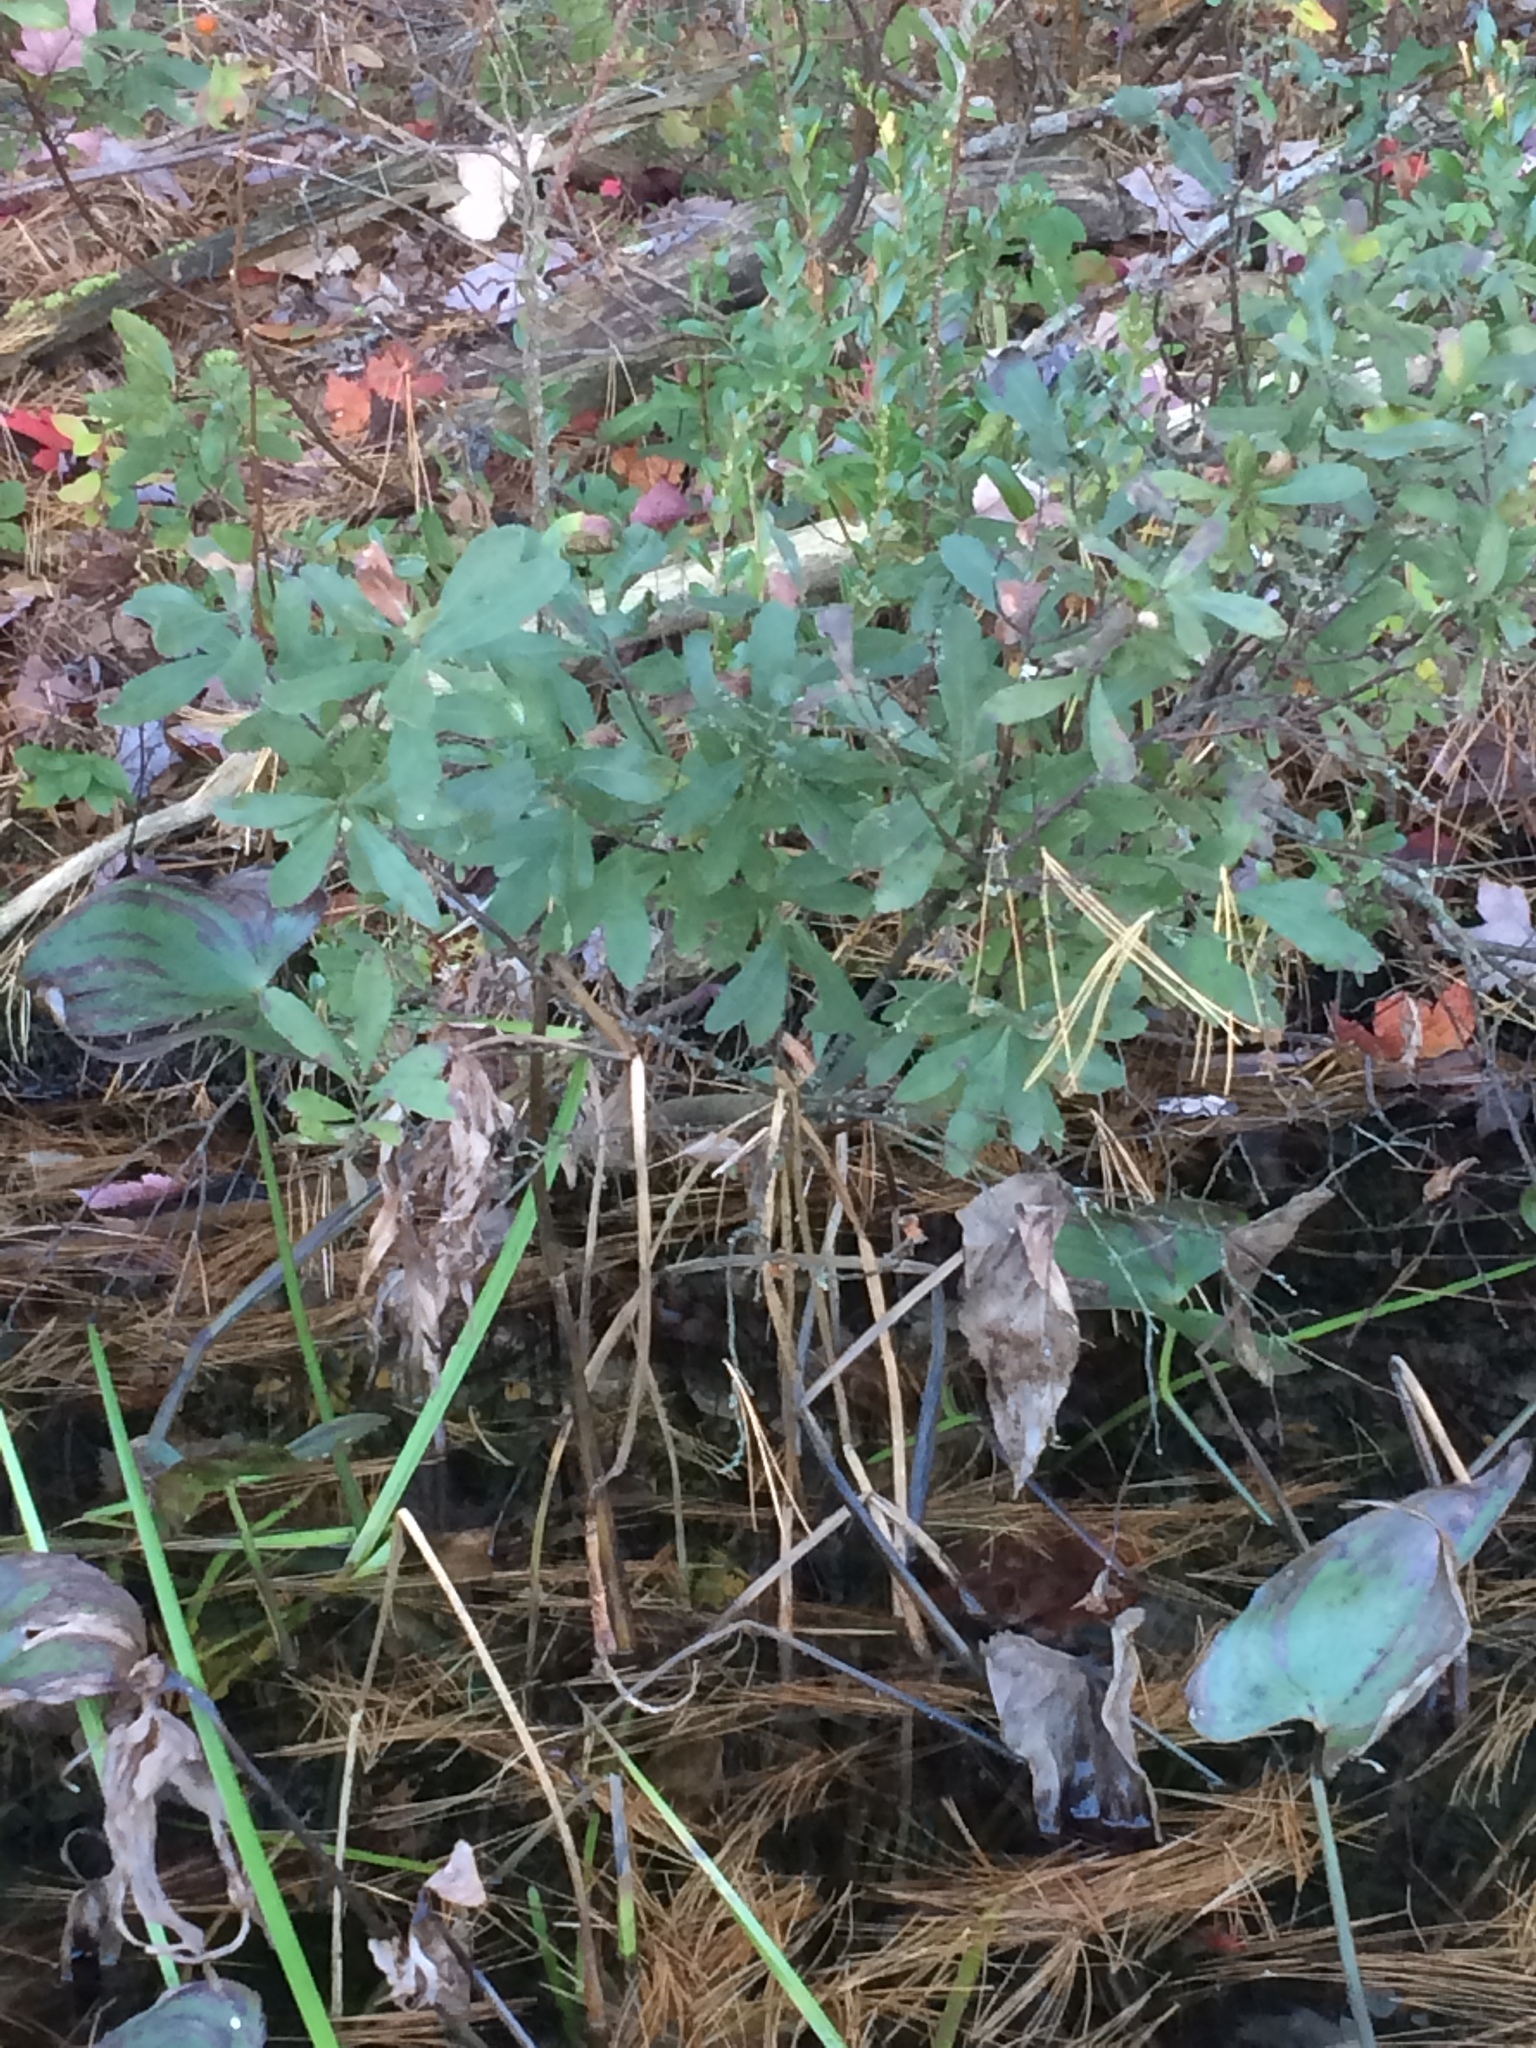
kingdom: Plantae
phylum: Tracheophyta
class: Magnoliopsida
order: Fagales
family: Myricaceae
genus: Myrica
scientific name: Myrica gale
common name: Sweet gale
